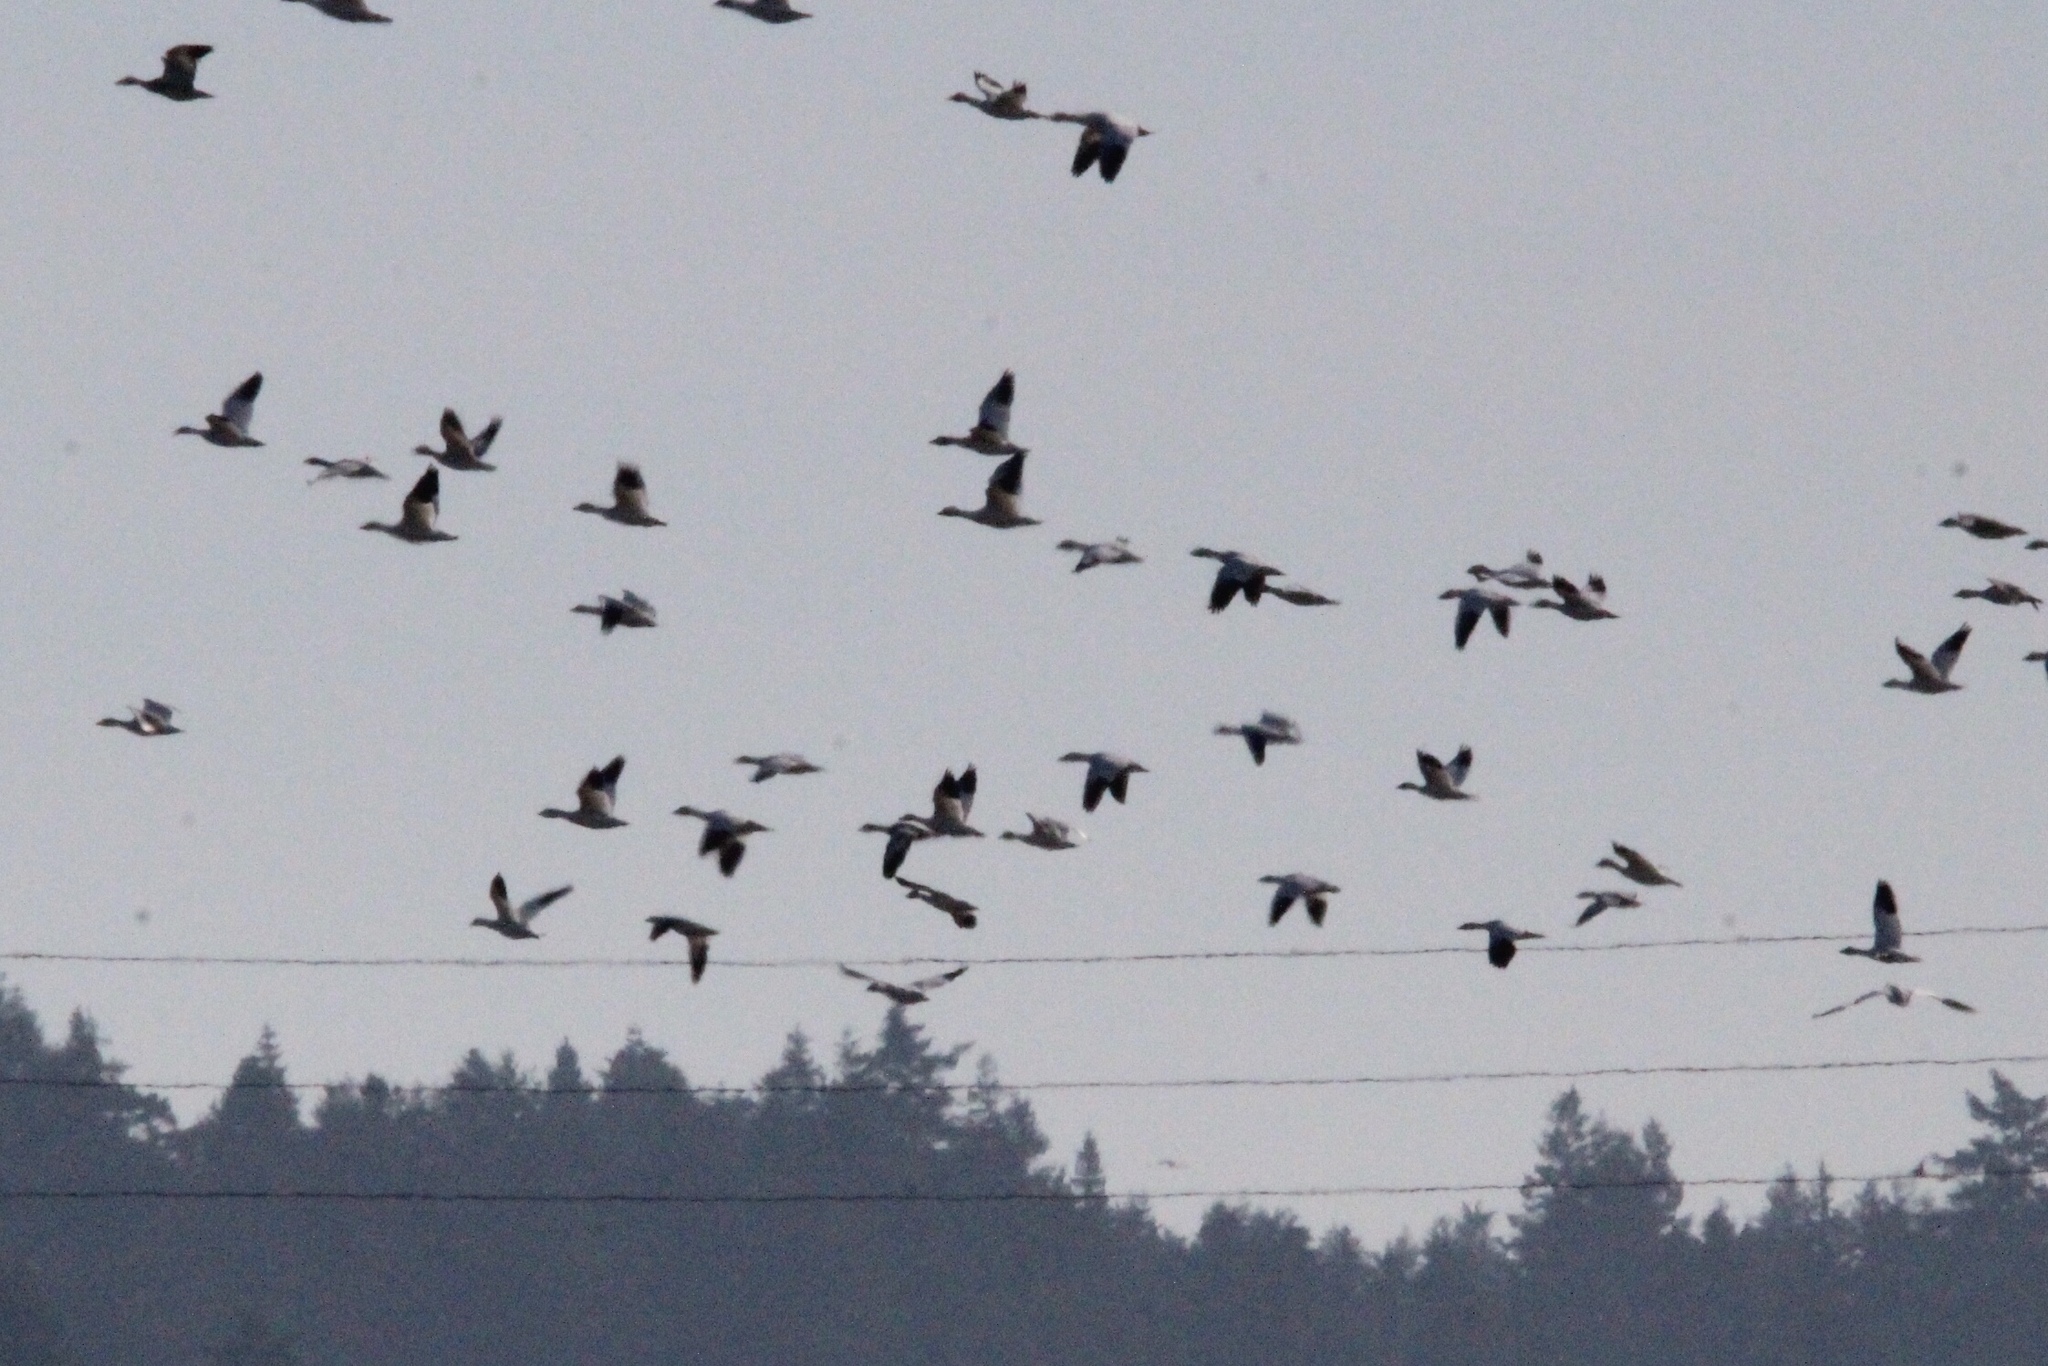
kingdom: Animalia
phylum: Chordata
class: Aves
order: Anseriformes
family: Anatidae
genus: Anser
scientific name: Anser caerulescens
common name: Snow goose
